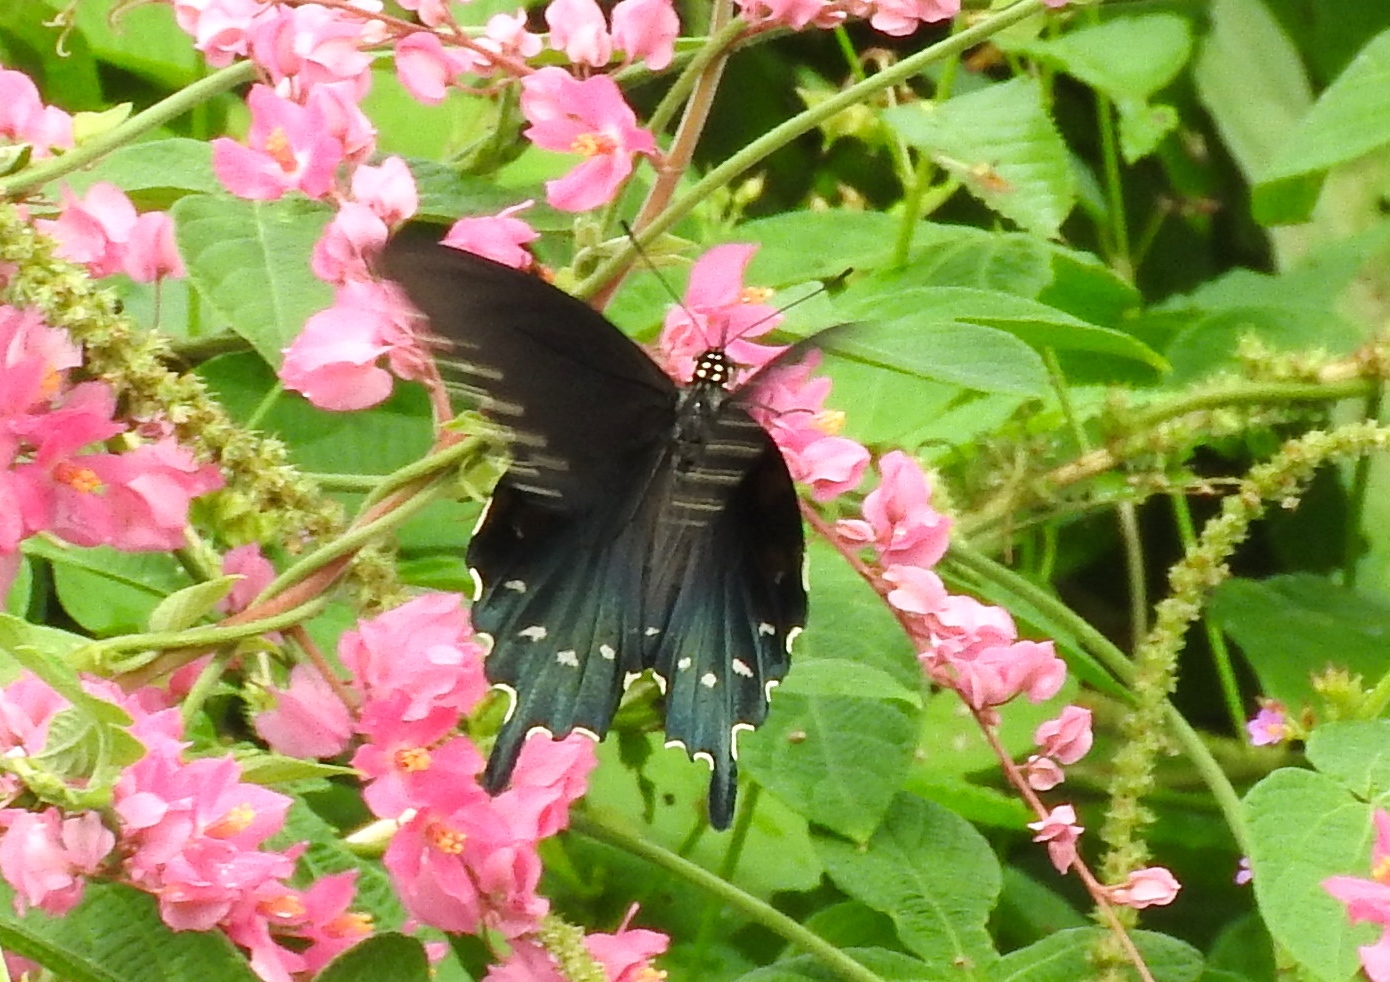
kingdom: Animalia
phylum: Arthropoda
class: Insecta
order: Lepidoptera
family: Papilionidae
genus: Battus
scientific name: Battus philenor
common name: Pipevine swallowtail
